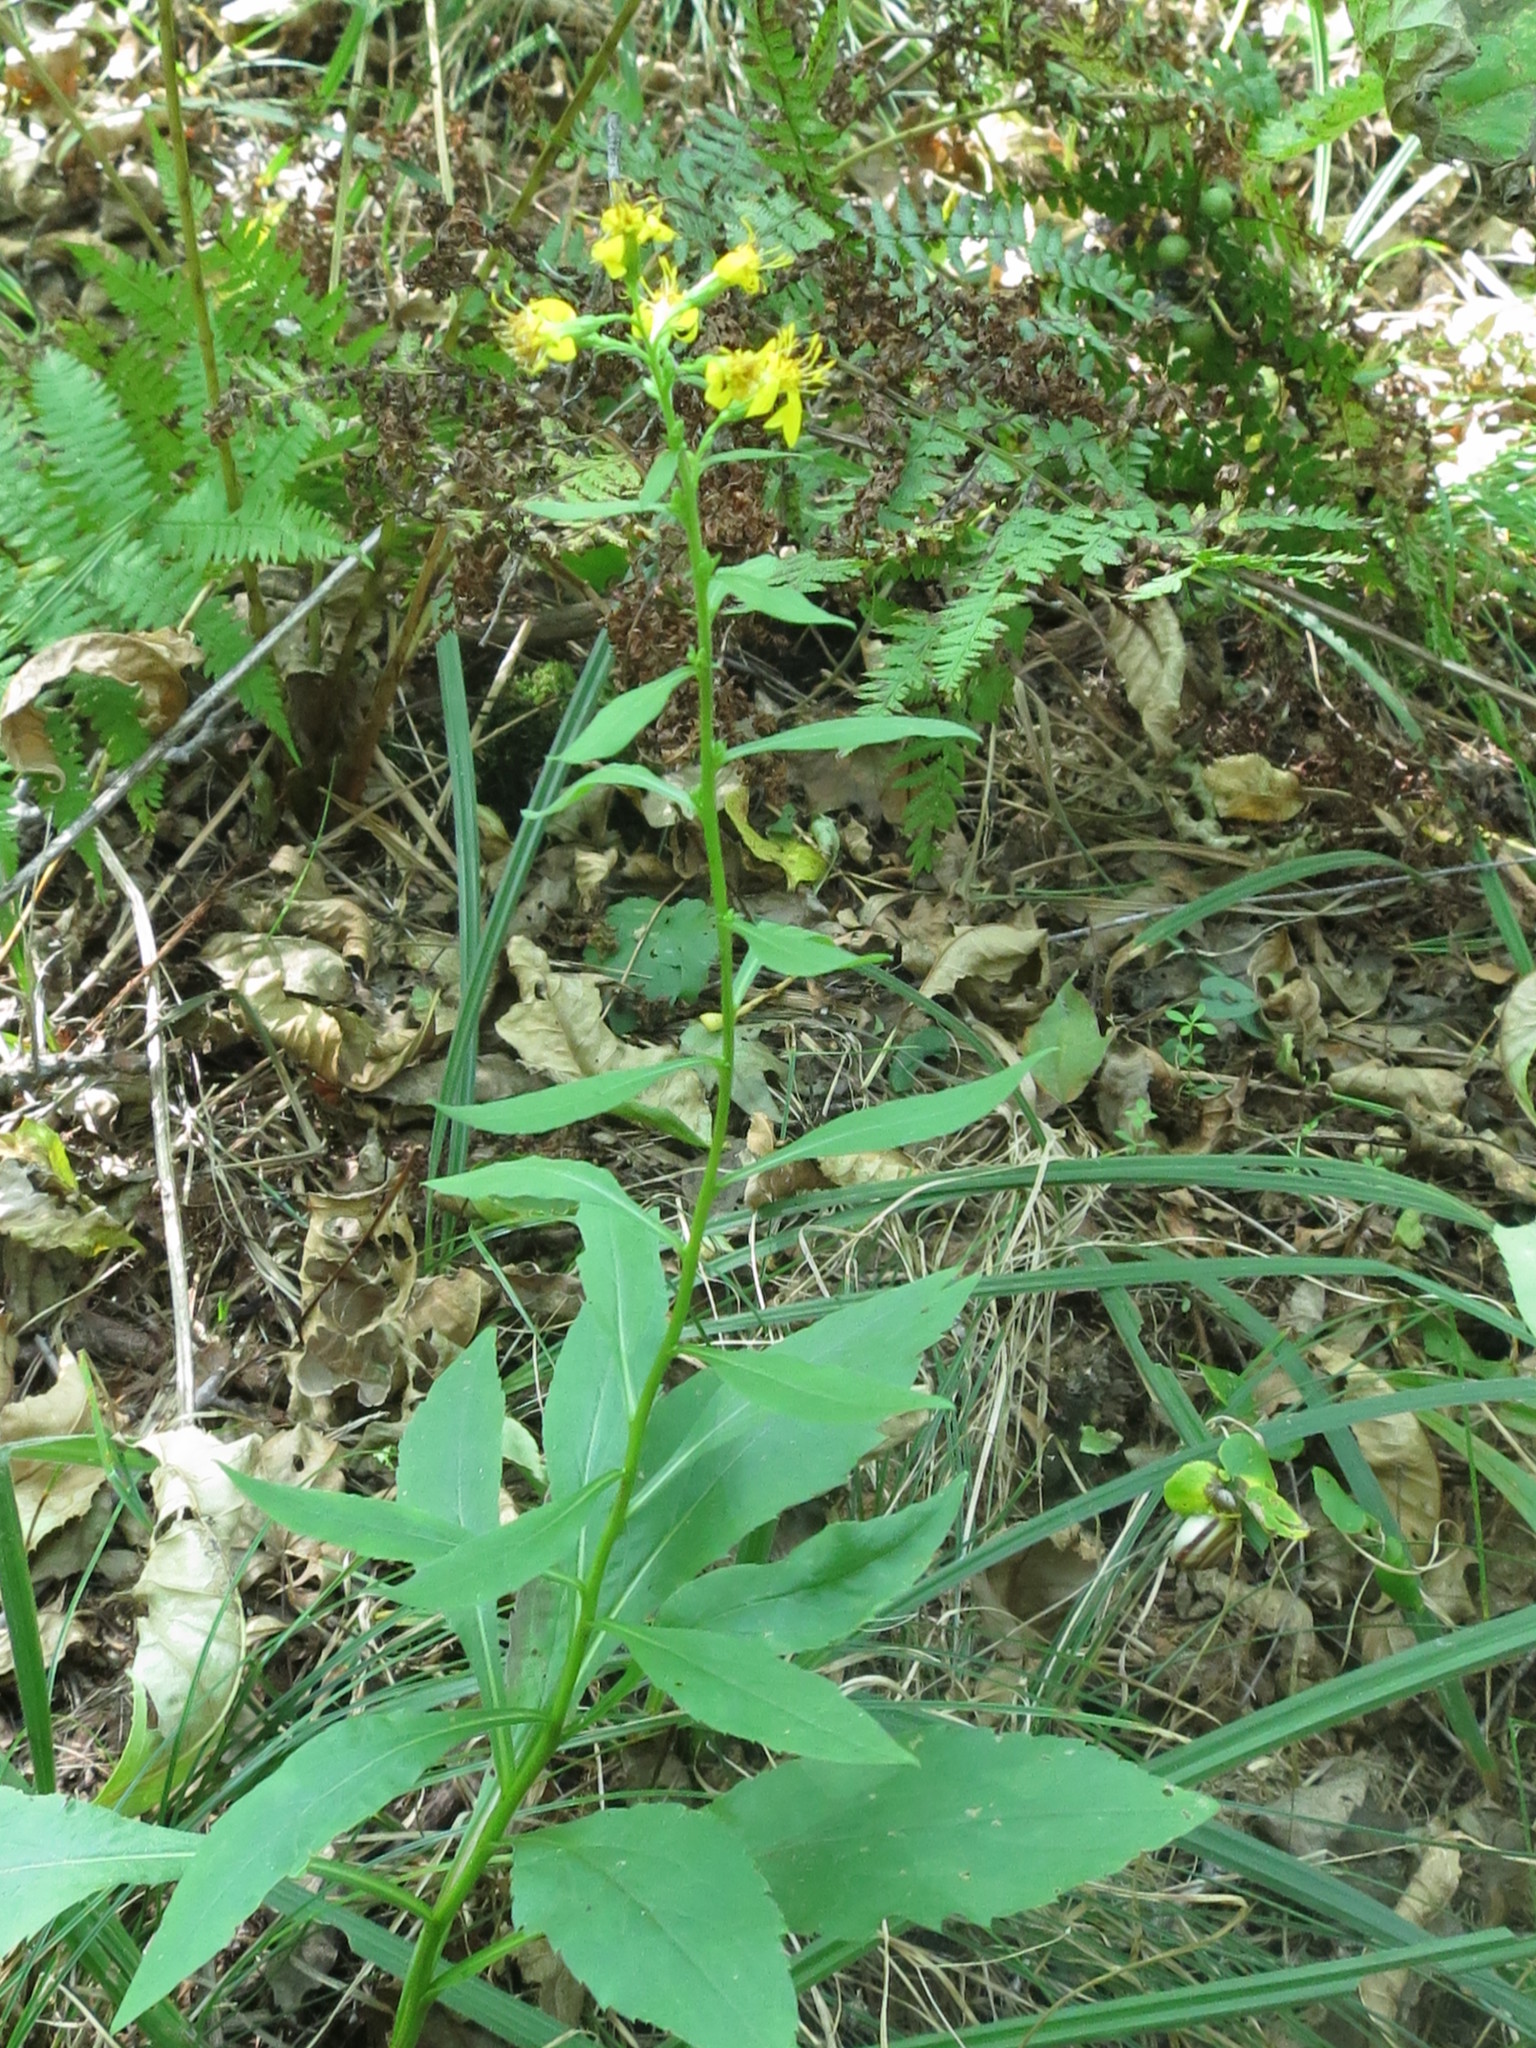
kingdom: Plantae
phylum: Tracheophyta
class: Magnoliopsida
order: Asterales
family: Asteraceae
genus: Solidago
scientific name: Solidago decurrens
